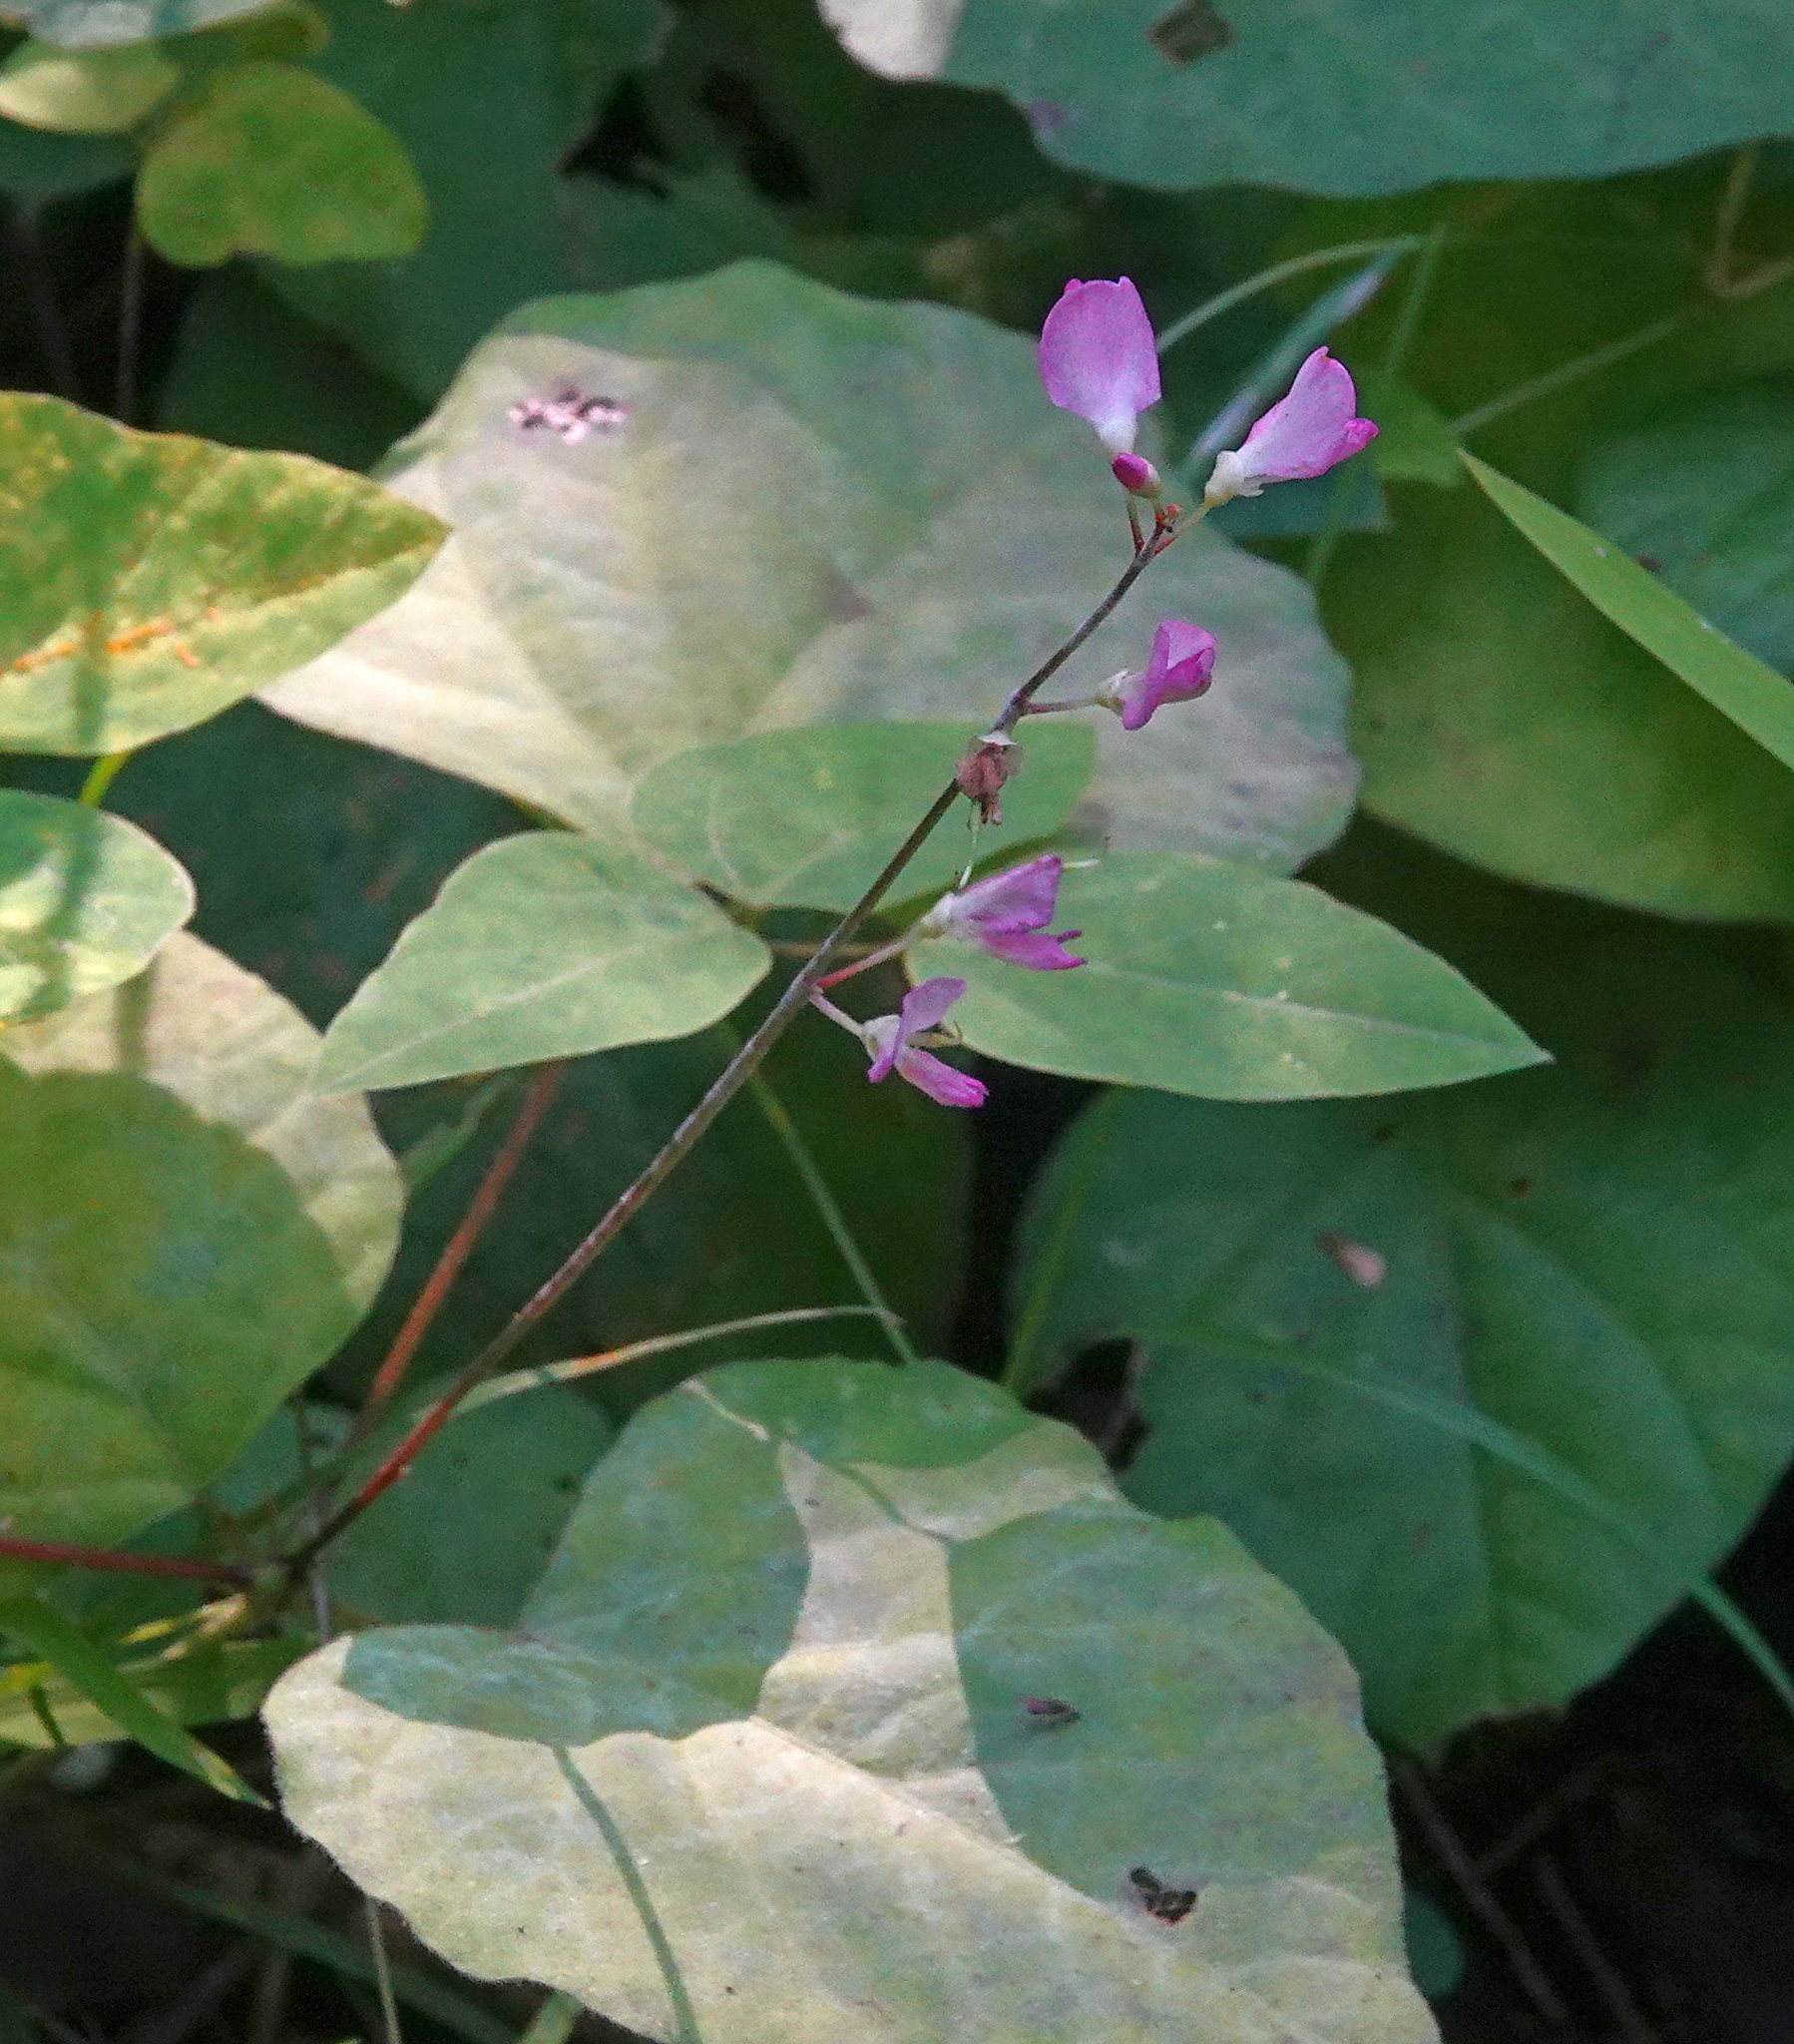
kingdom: Plantae
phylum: Tracheophyta
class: Magnoliopsida
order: Fabales
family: Fabaceae
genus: Hylodesmum
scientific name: Hylodesmum glutinosum
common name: Clustered-leaved tick-trefoil
